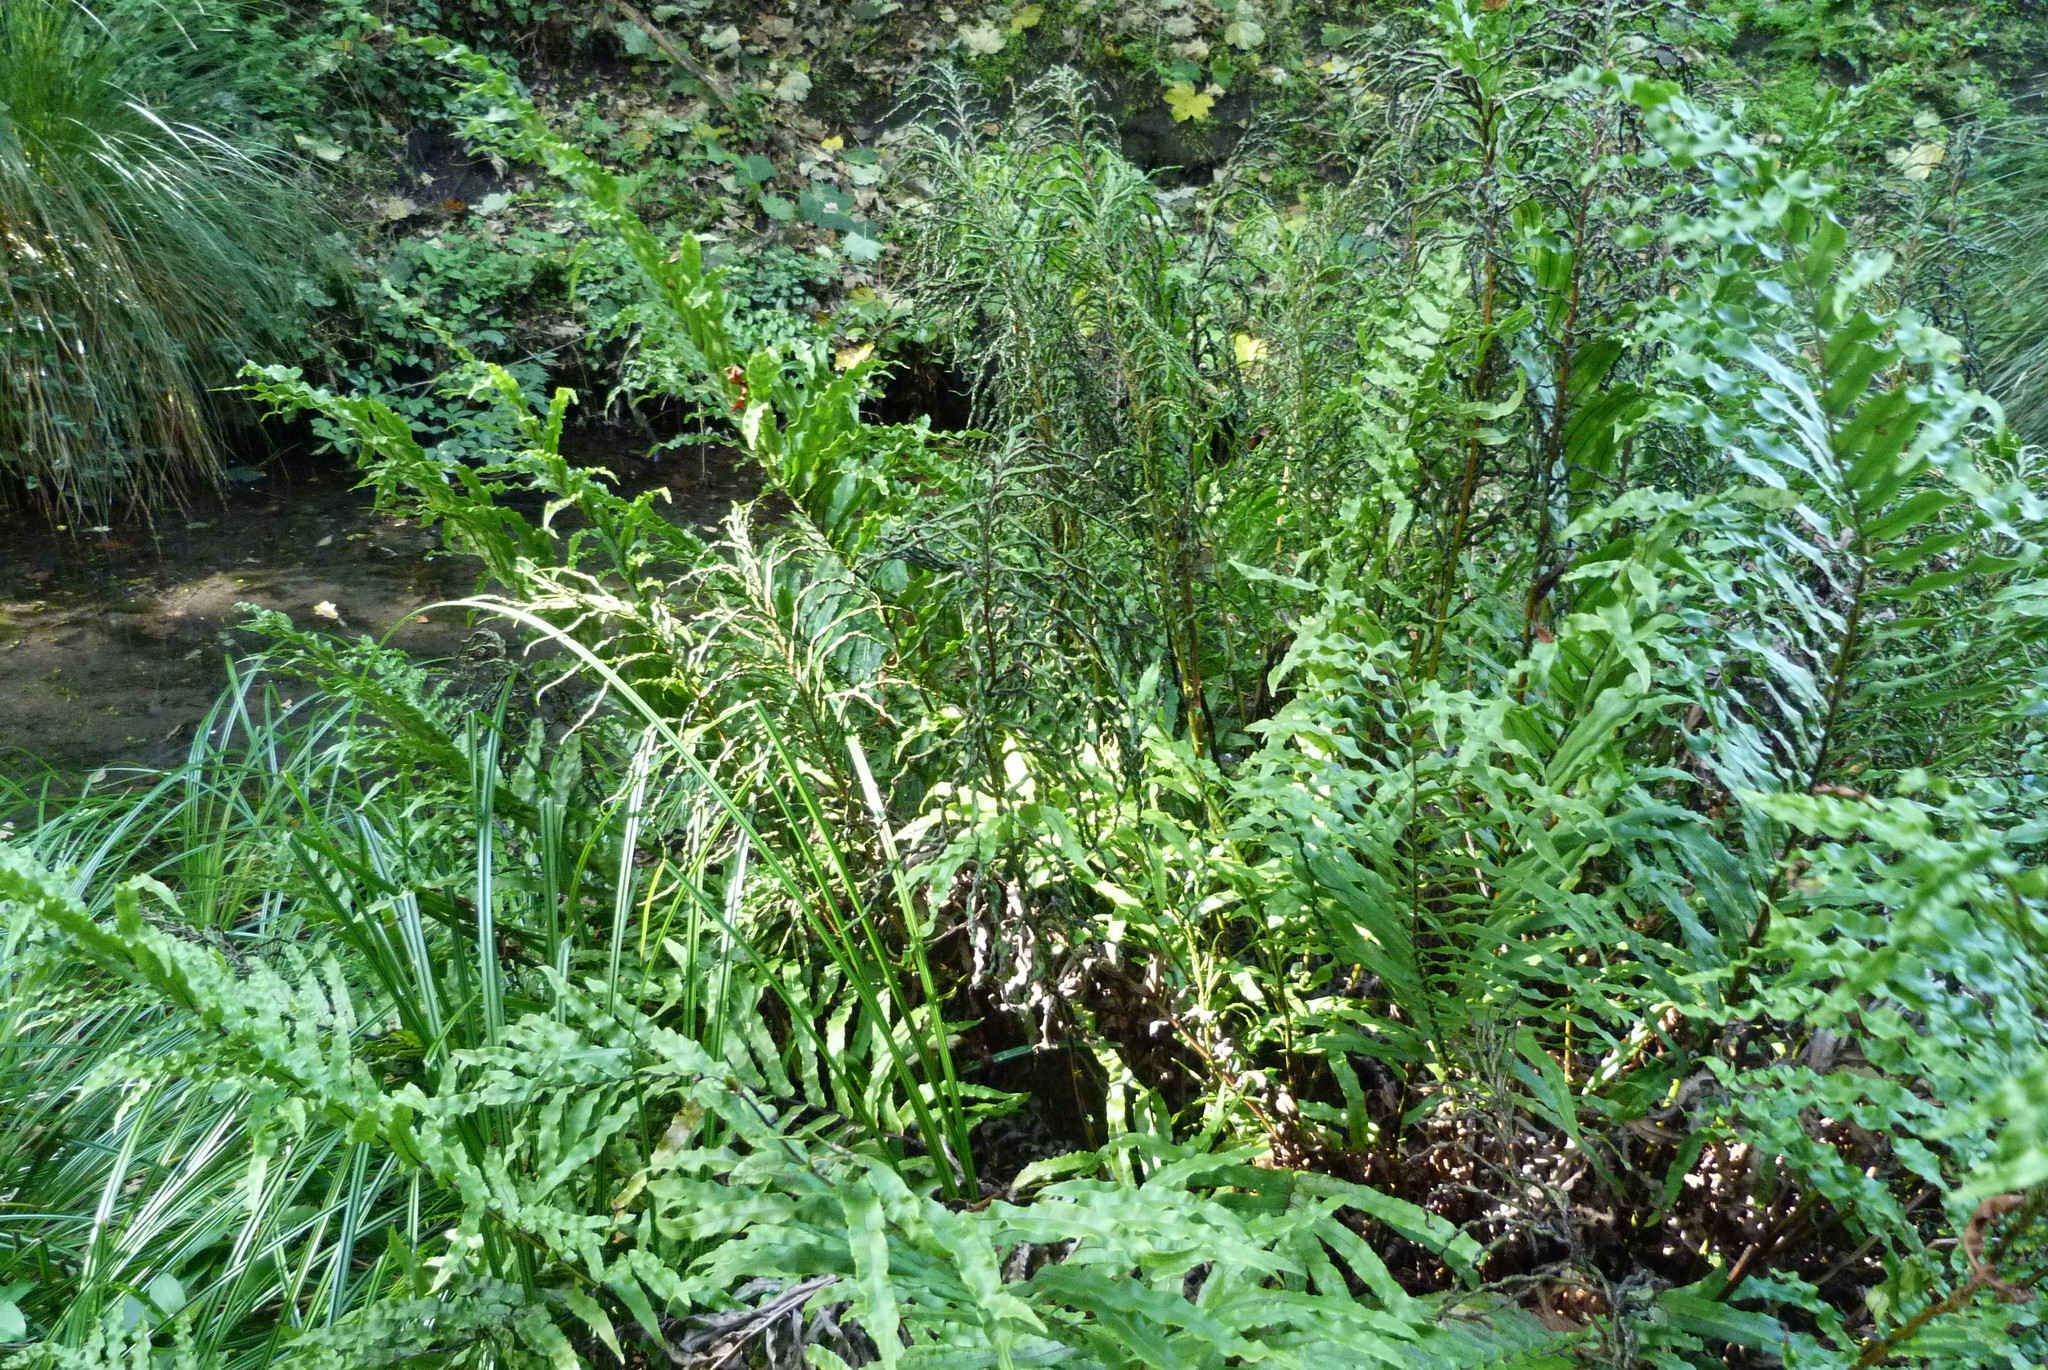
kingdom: Plantae
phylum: Tracheophyta
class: Polypodiopsida
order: Polypodiales
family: Blechnaceae
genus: Parablechnum
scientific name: Parablechnum novae-zelandiae
